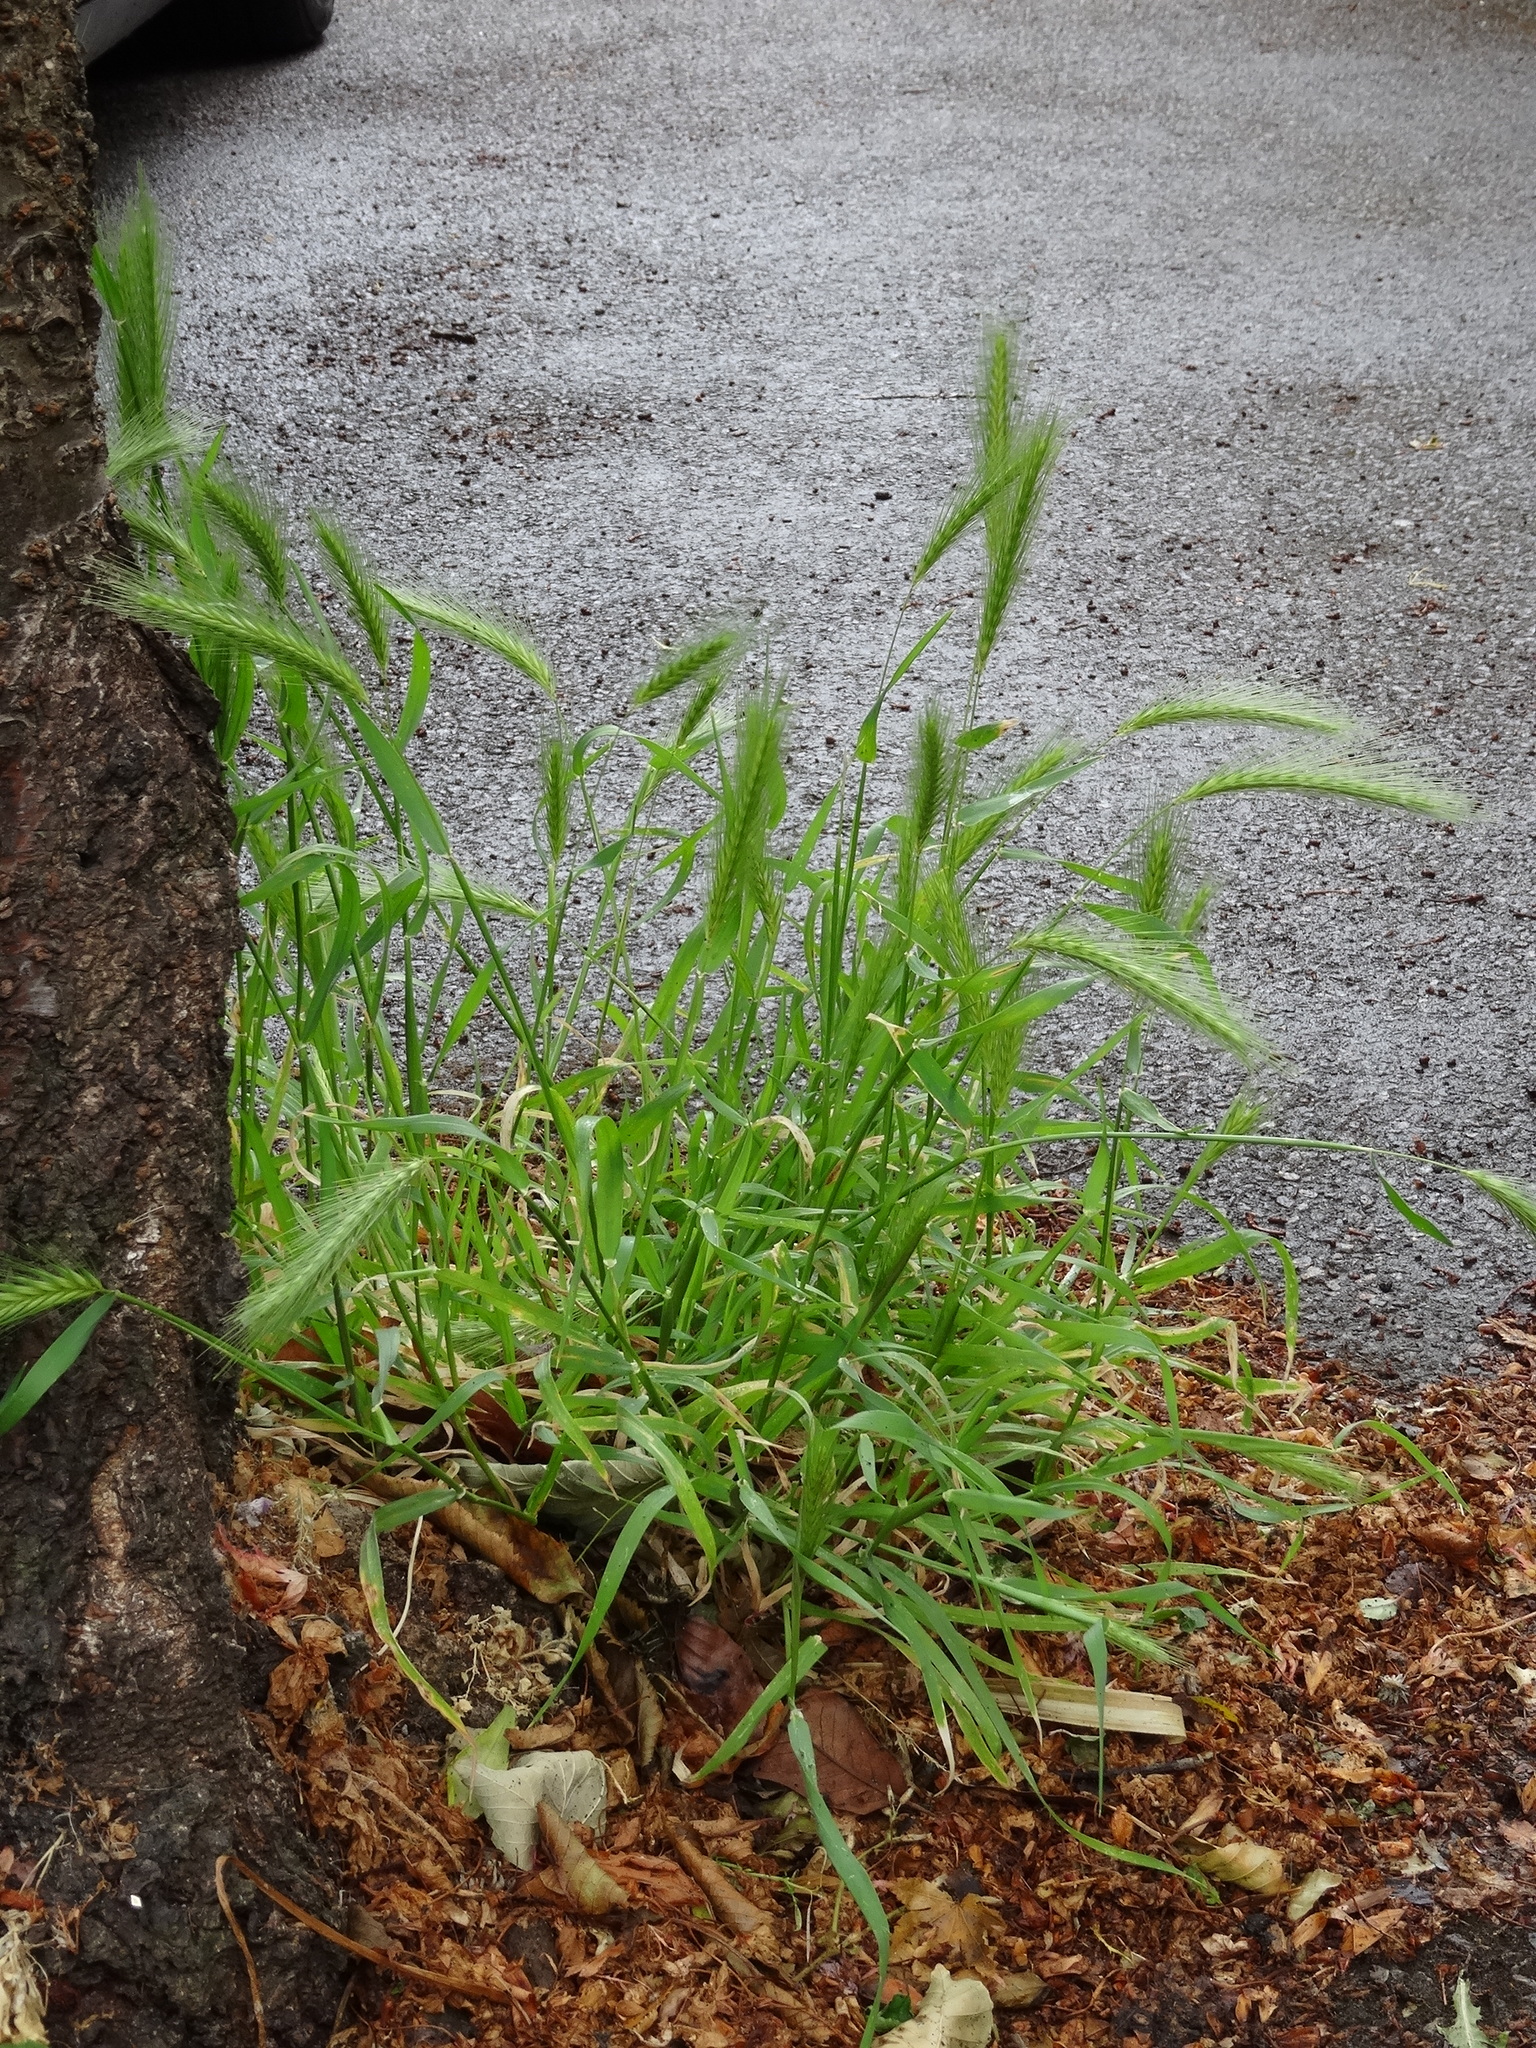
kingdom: Plantae
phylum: Tracheophyta
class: Liliopsida
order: Poales
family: Poaceae
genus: Hordeum
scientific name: Hordeum murinum
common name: Wall barley
